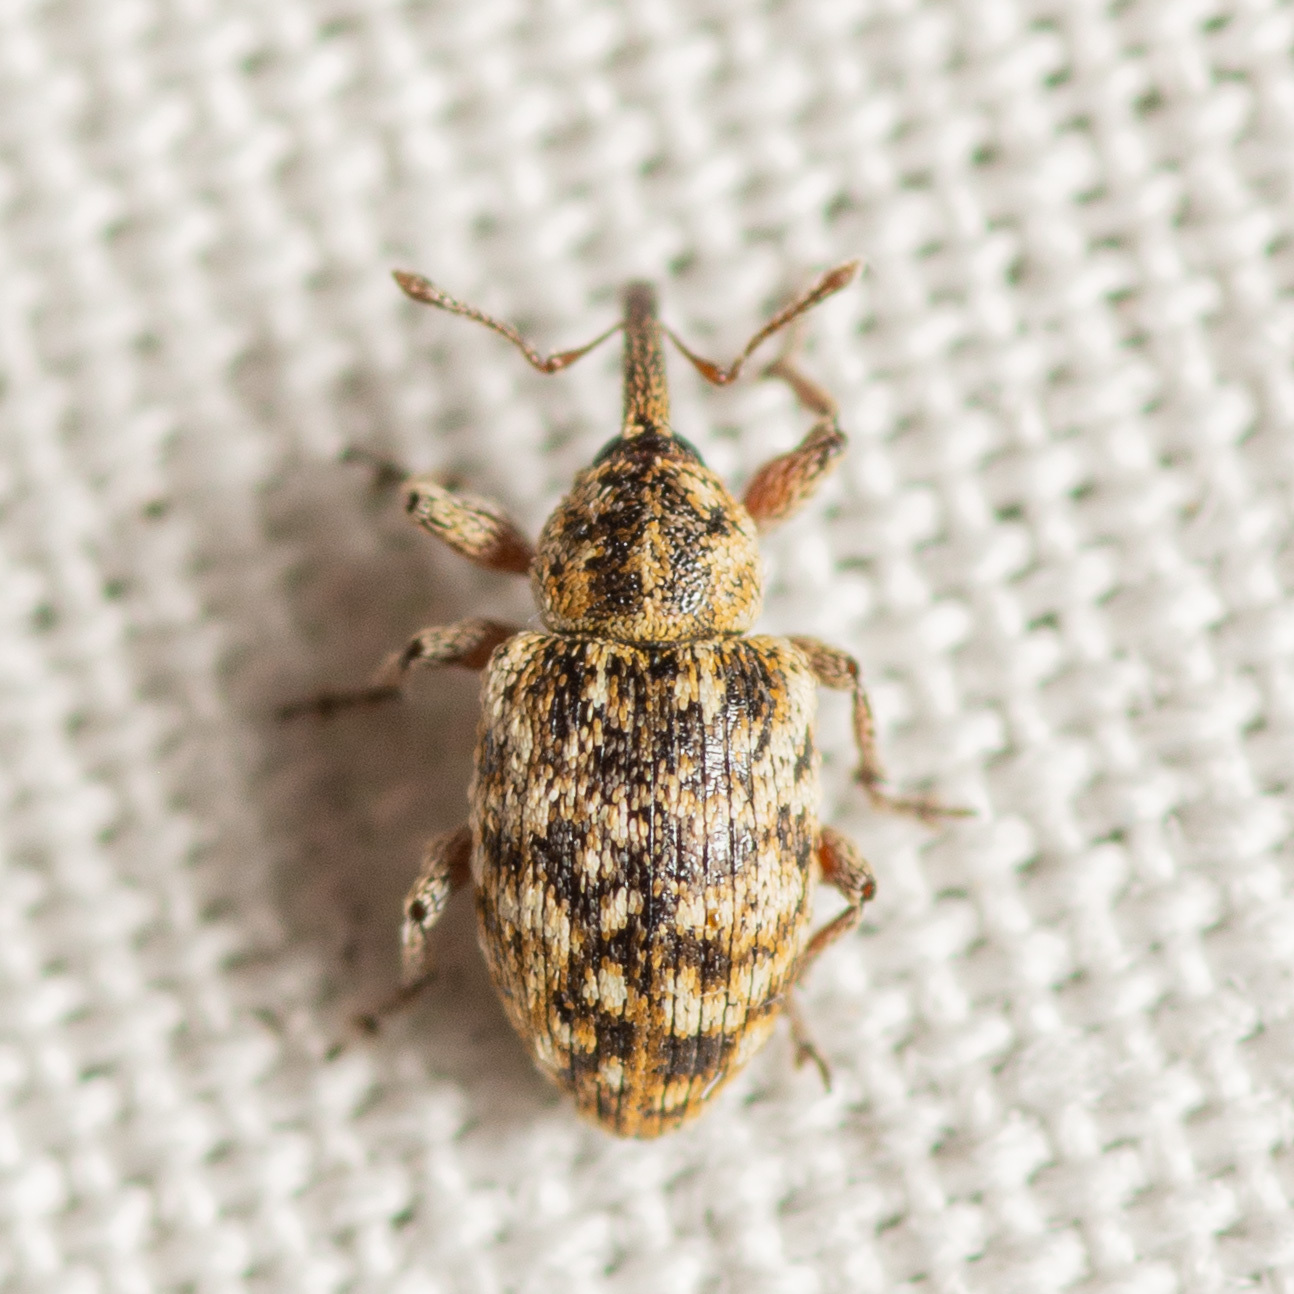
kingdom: Animalia
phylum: Arthropoda
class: Insecta
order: Coleoptera
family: Curculionidae
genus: Smicronyx
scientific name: Smicronyx
